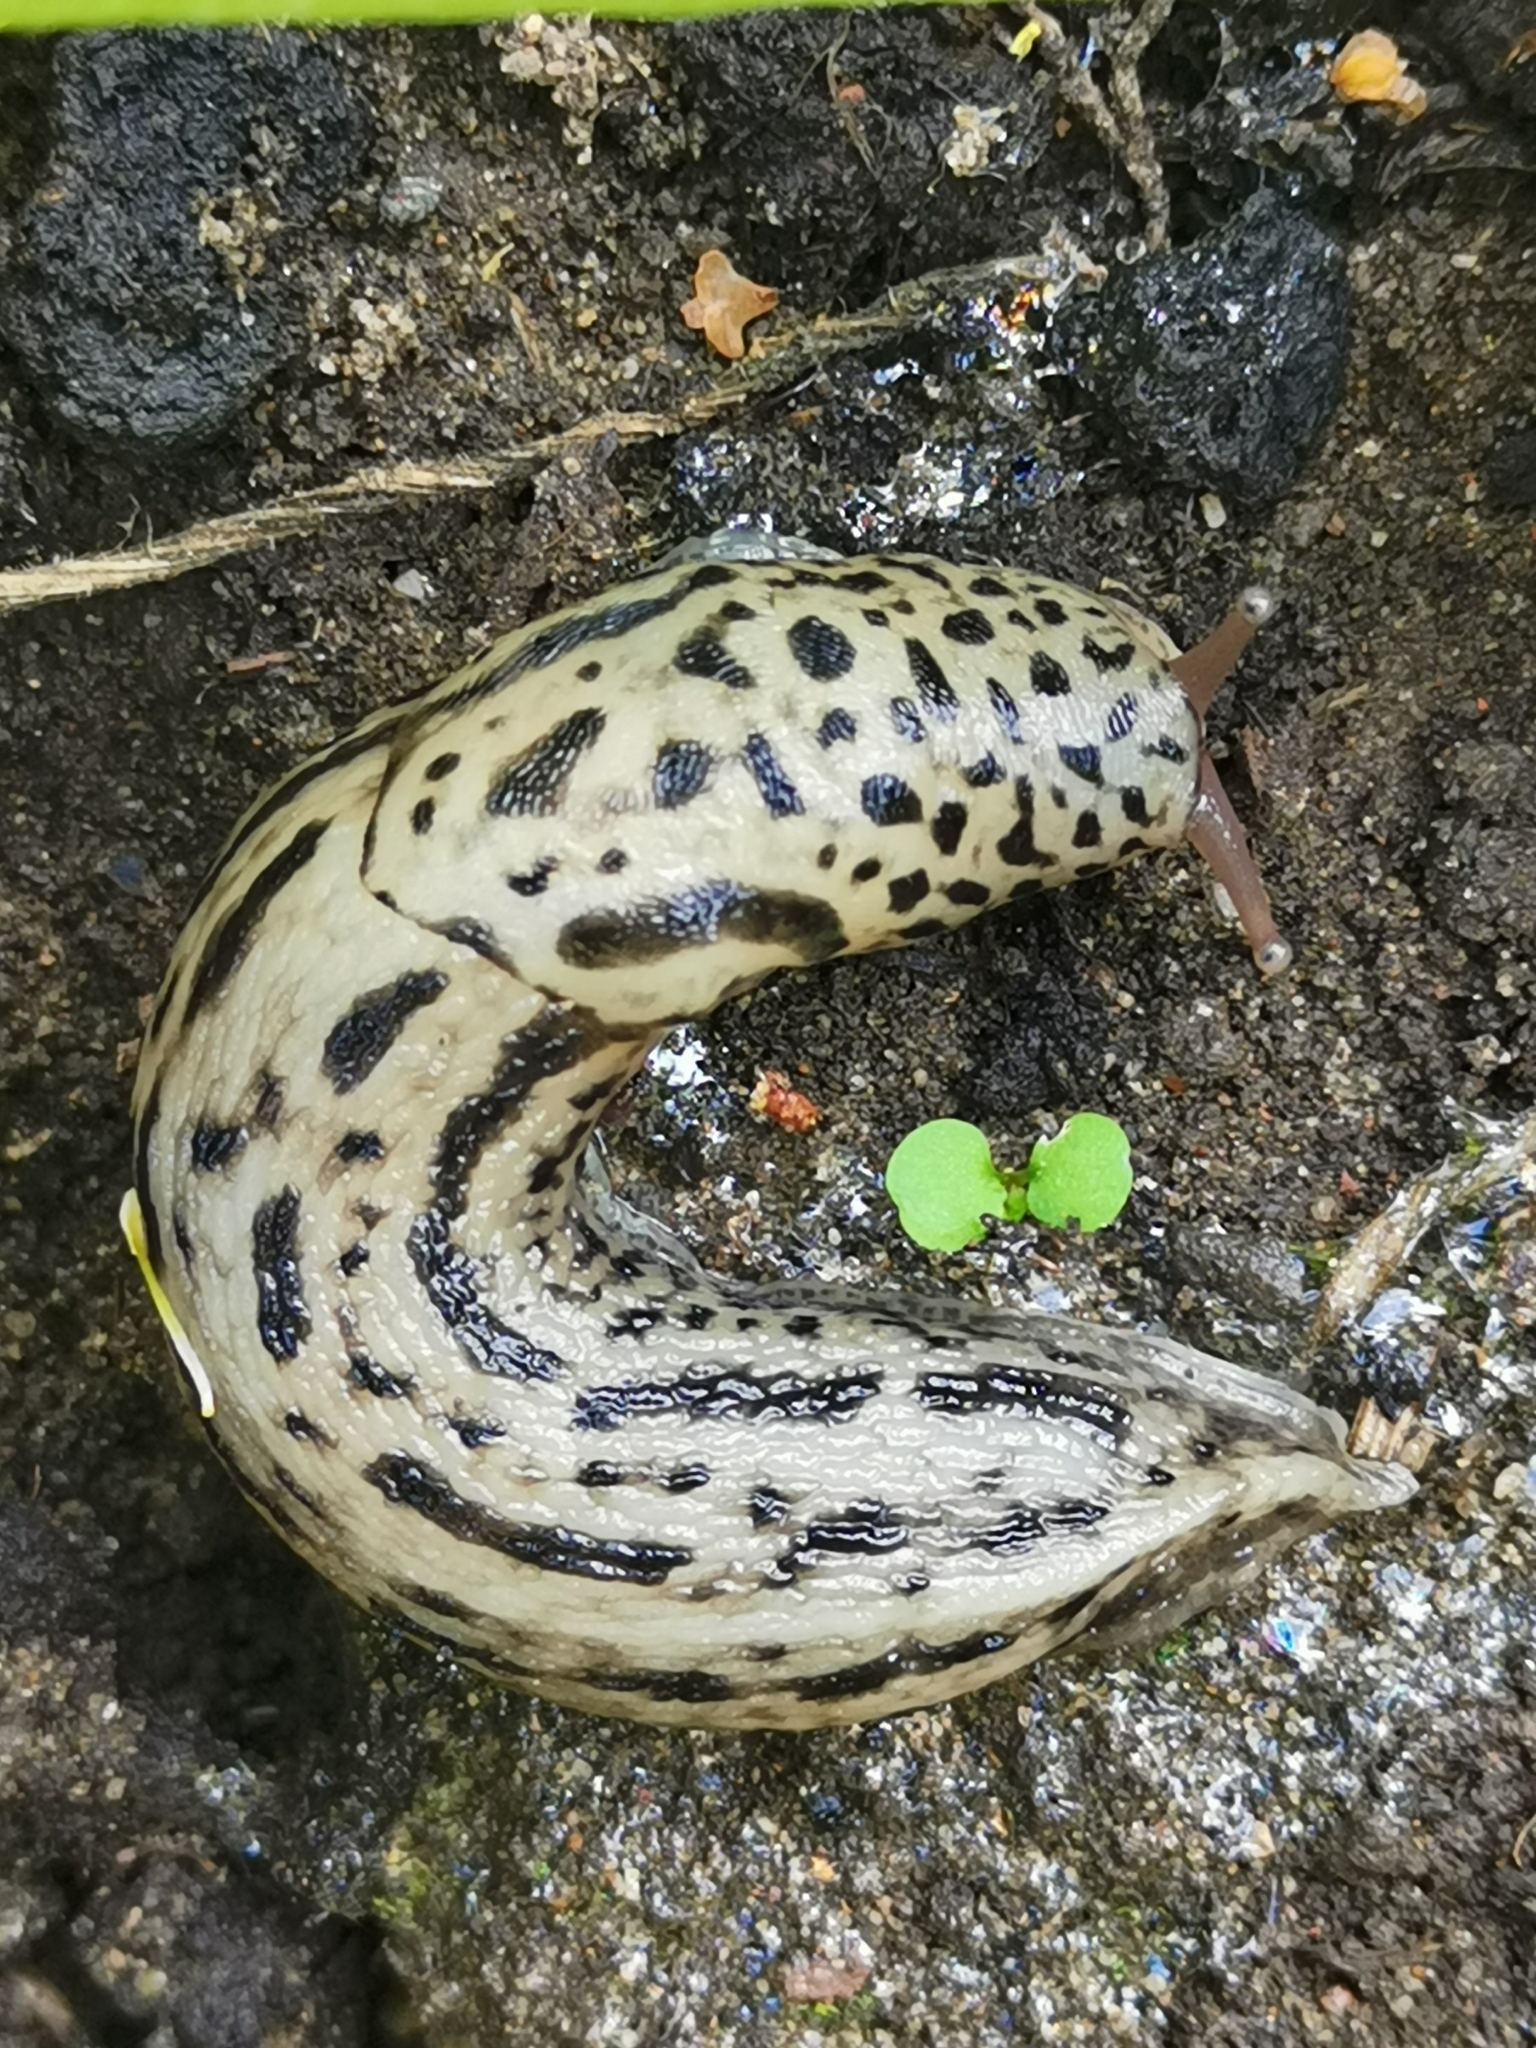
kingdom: Animalia
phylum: Mollusca
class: Gastropoda
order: Stylommatophora
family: Limacidae
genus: Limax
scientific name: Limax maximus
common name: Great grey slug
